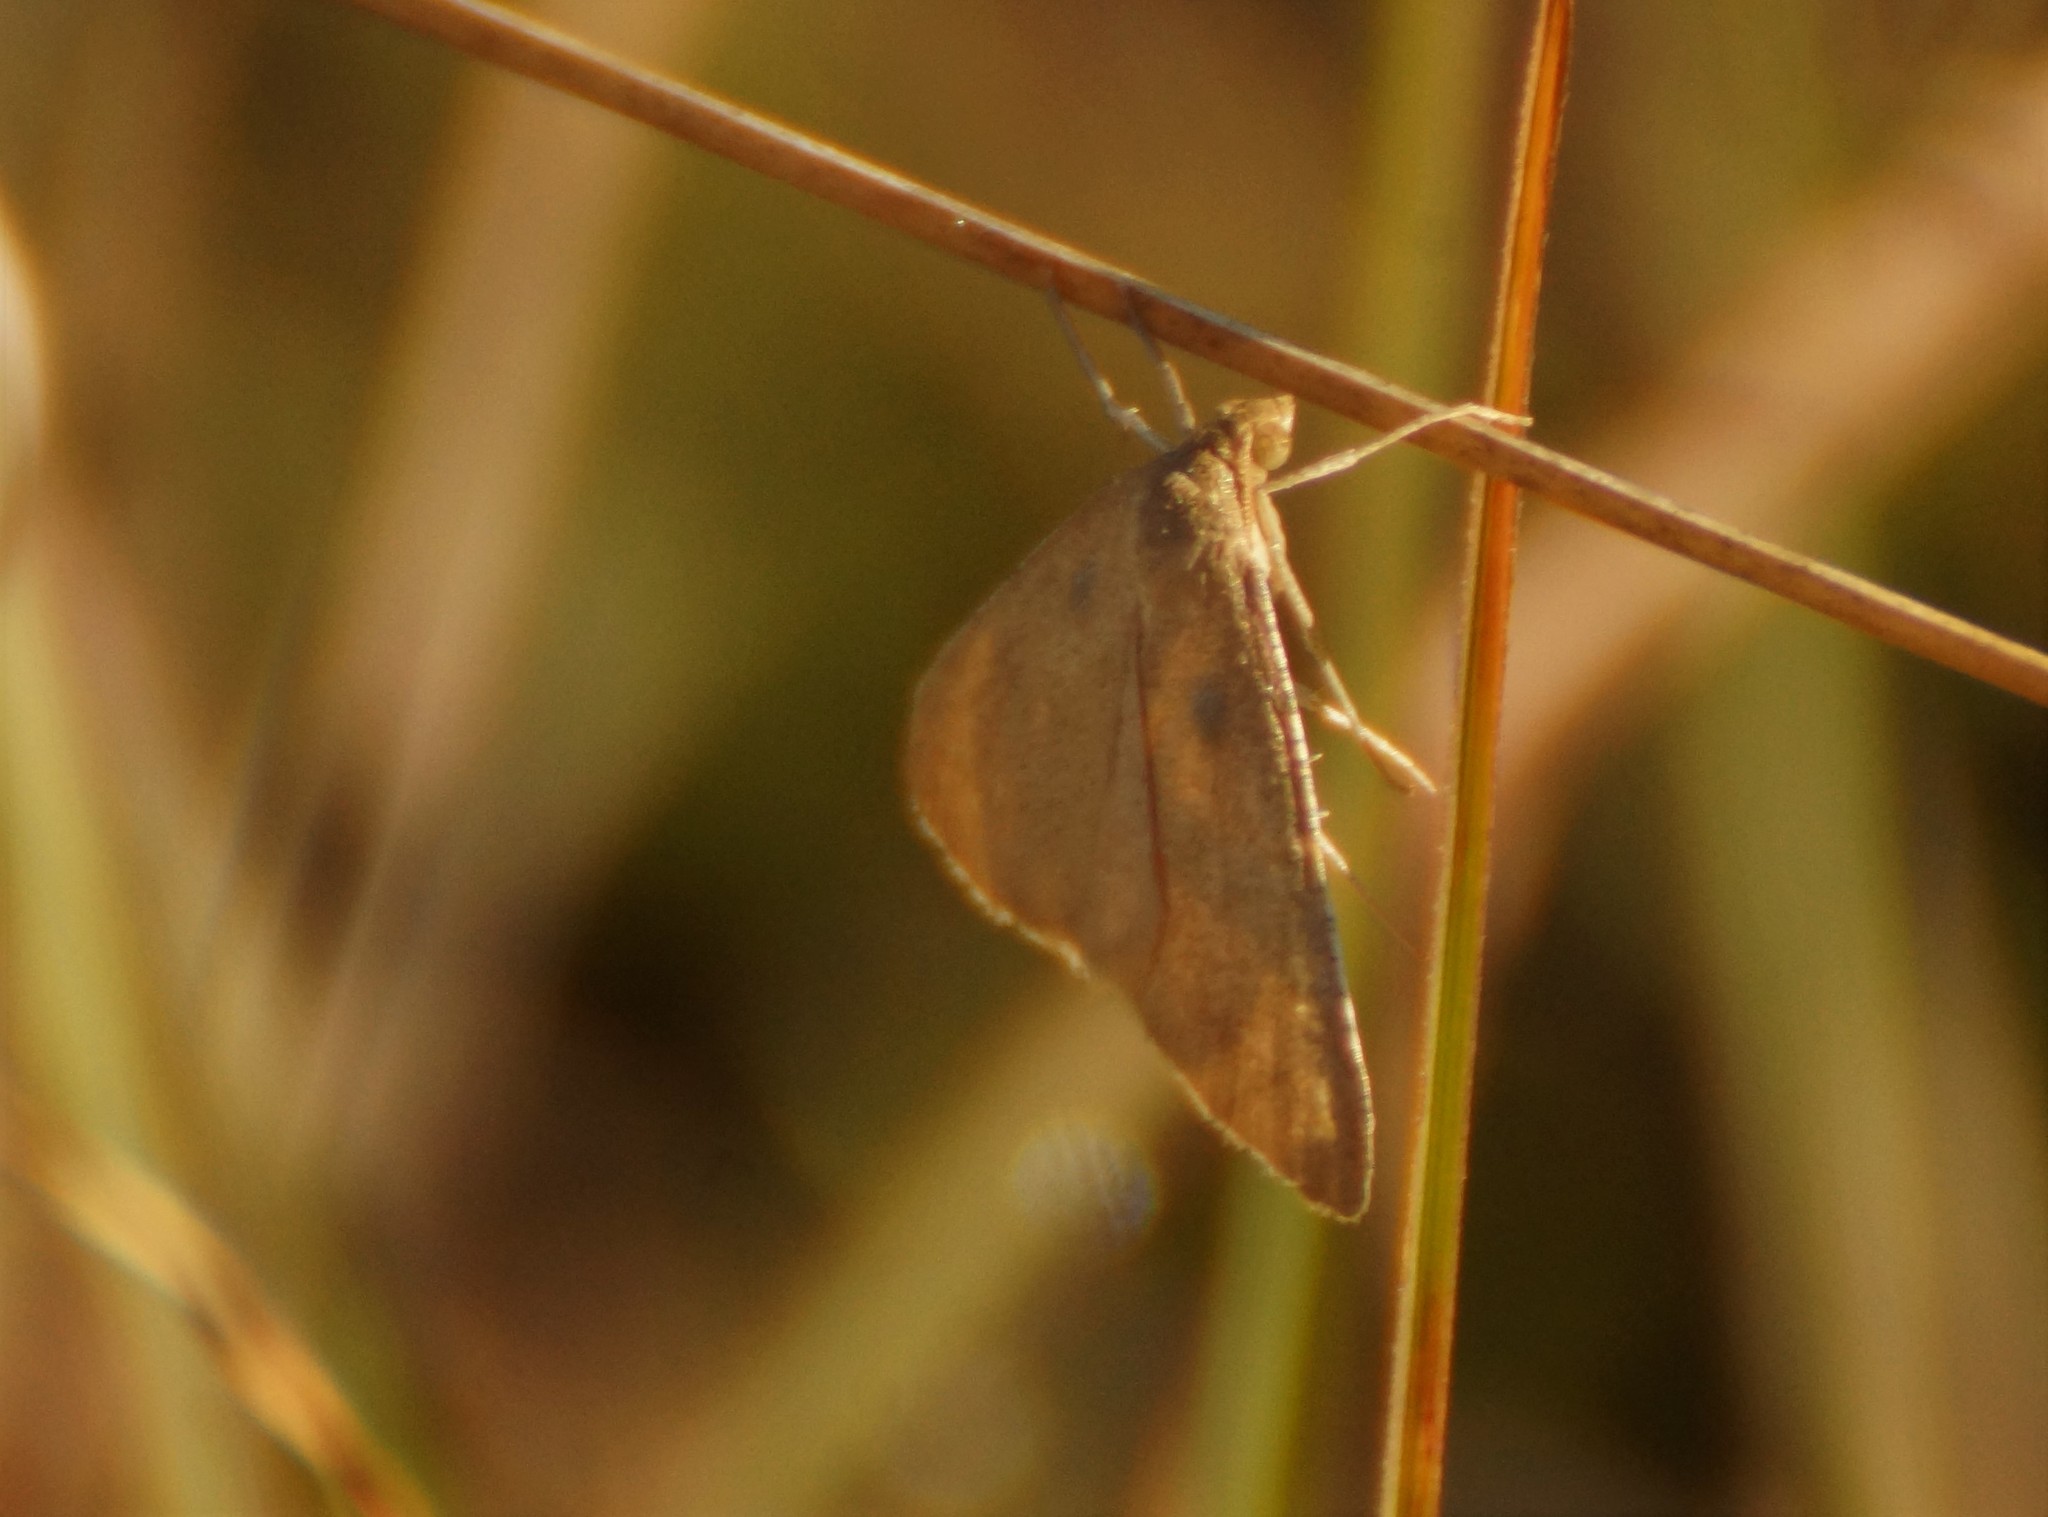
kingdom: Animalia
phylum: Arthropoda
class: Insecta
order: Lepidoptera
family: Geometridae
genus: Neritodes
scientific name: Neritodes verrucata
